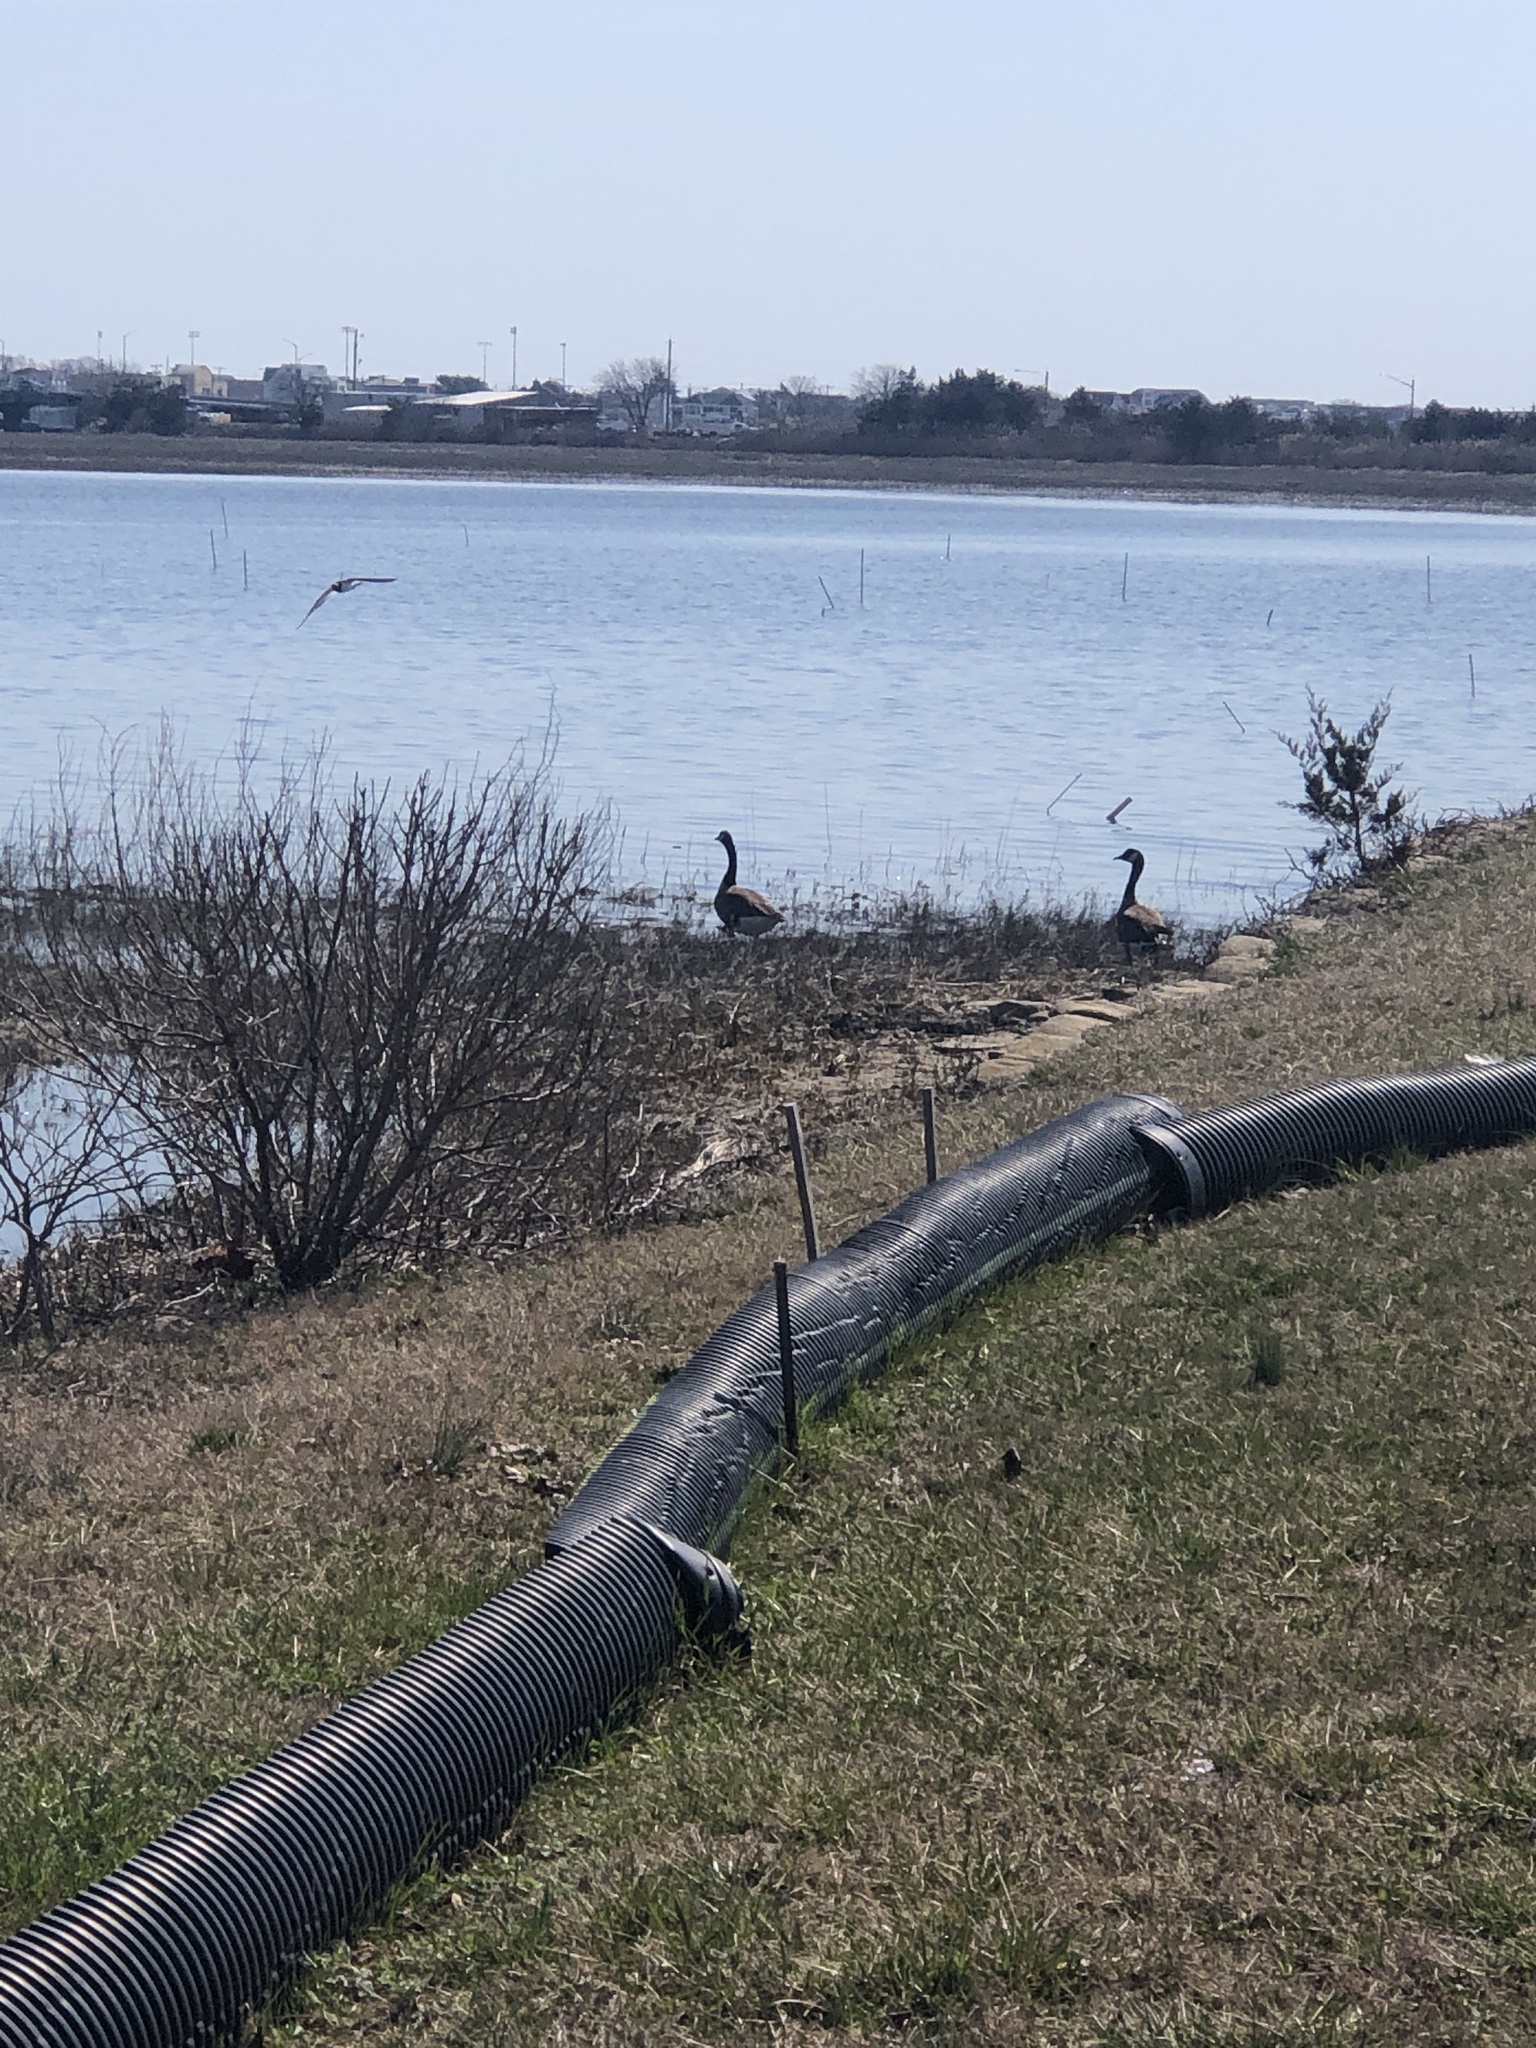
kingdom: Animalia
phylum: Chordata
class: Aves
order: Anseriformes
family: Anatidae
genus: Branta
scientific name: Branta canadensis
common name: Canada goose
